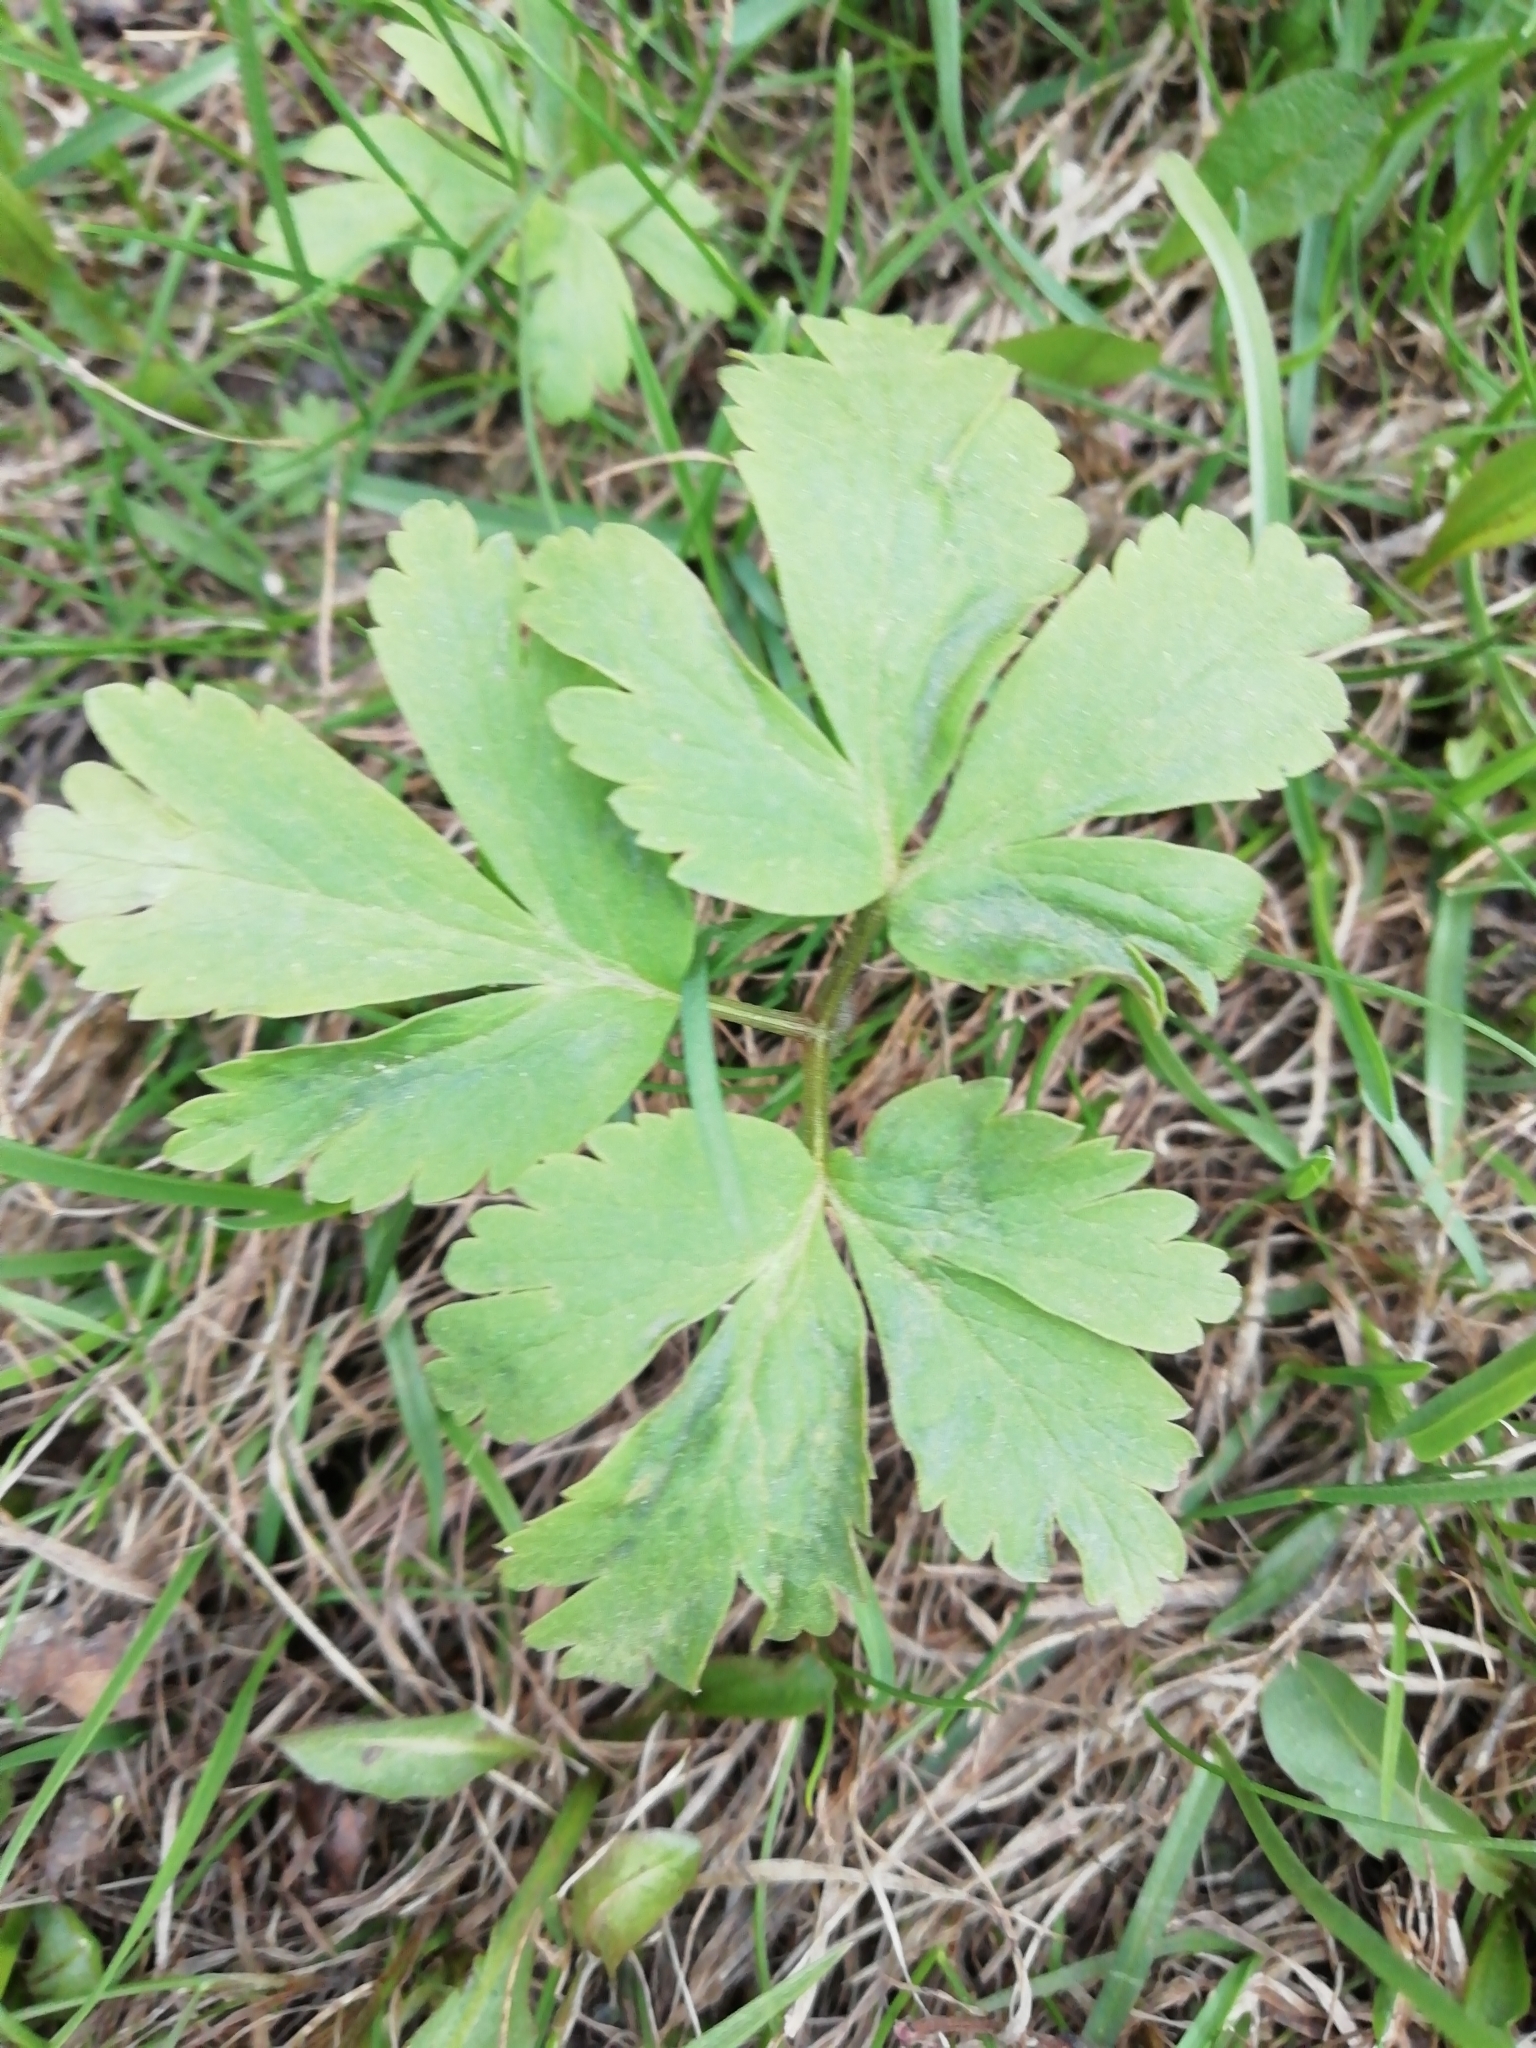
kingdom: Plantae
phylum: Tracheophyta
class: Magnoliopsida
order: Ranunculales
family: Ranunculaceae
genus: Anemone
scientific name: Anemone altaica
